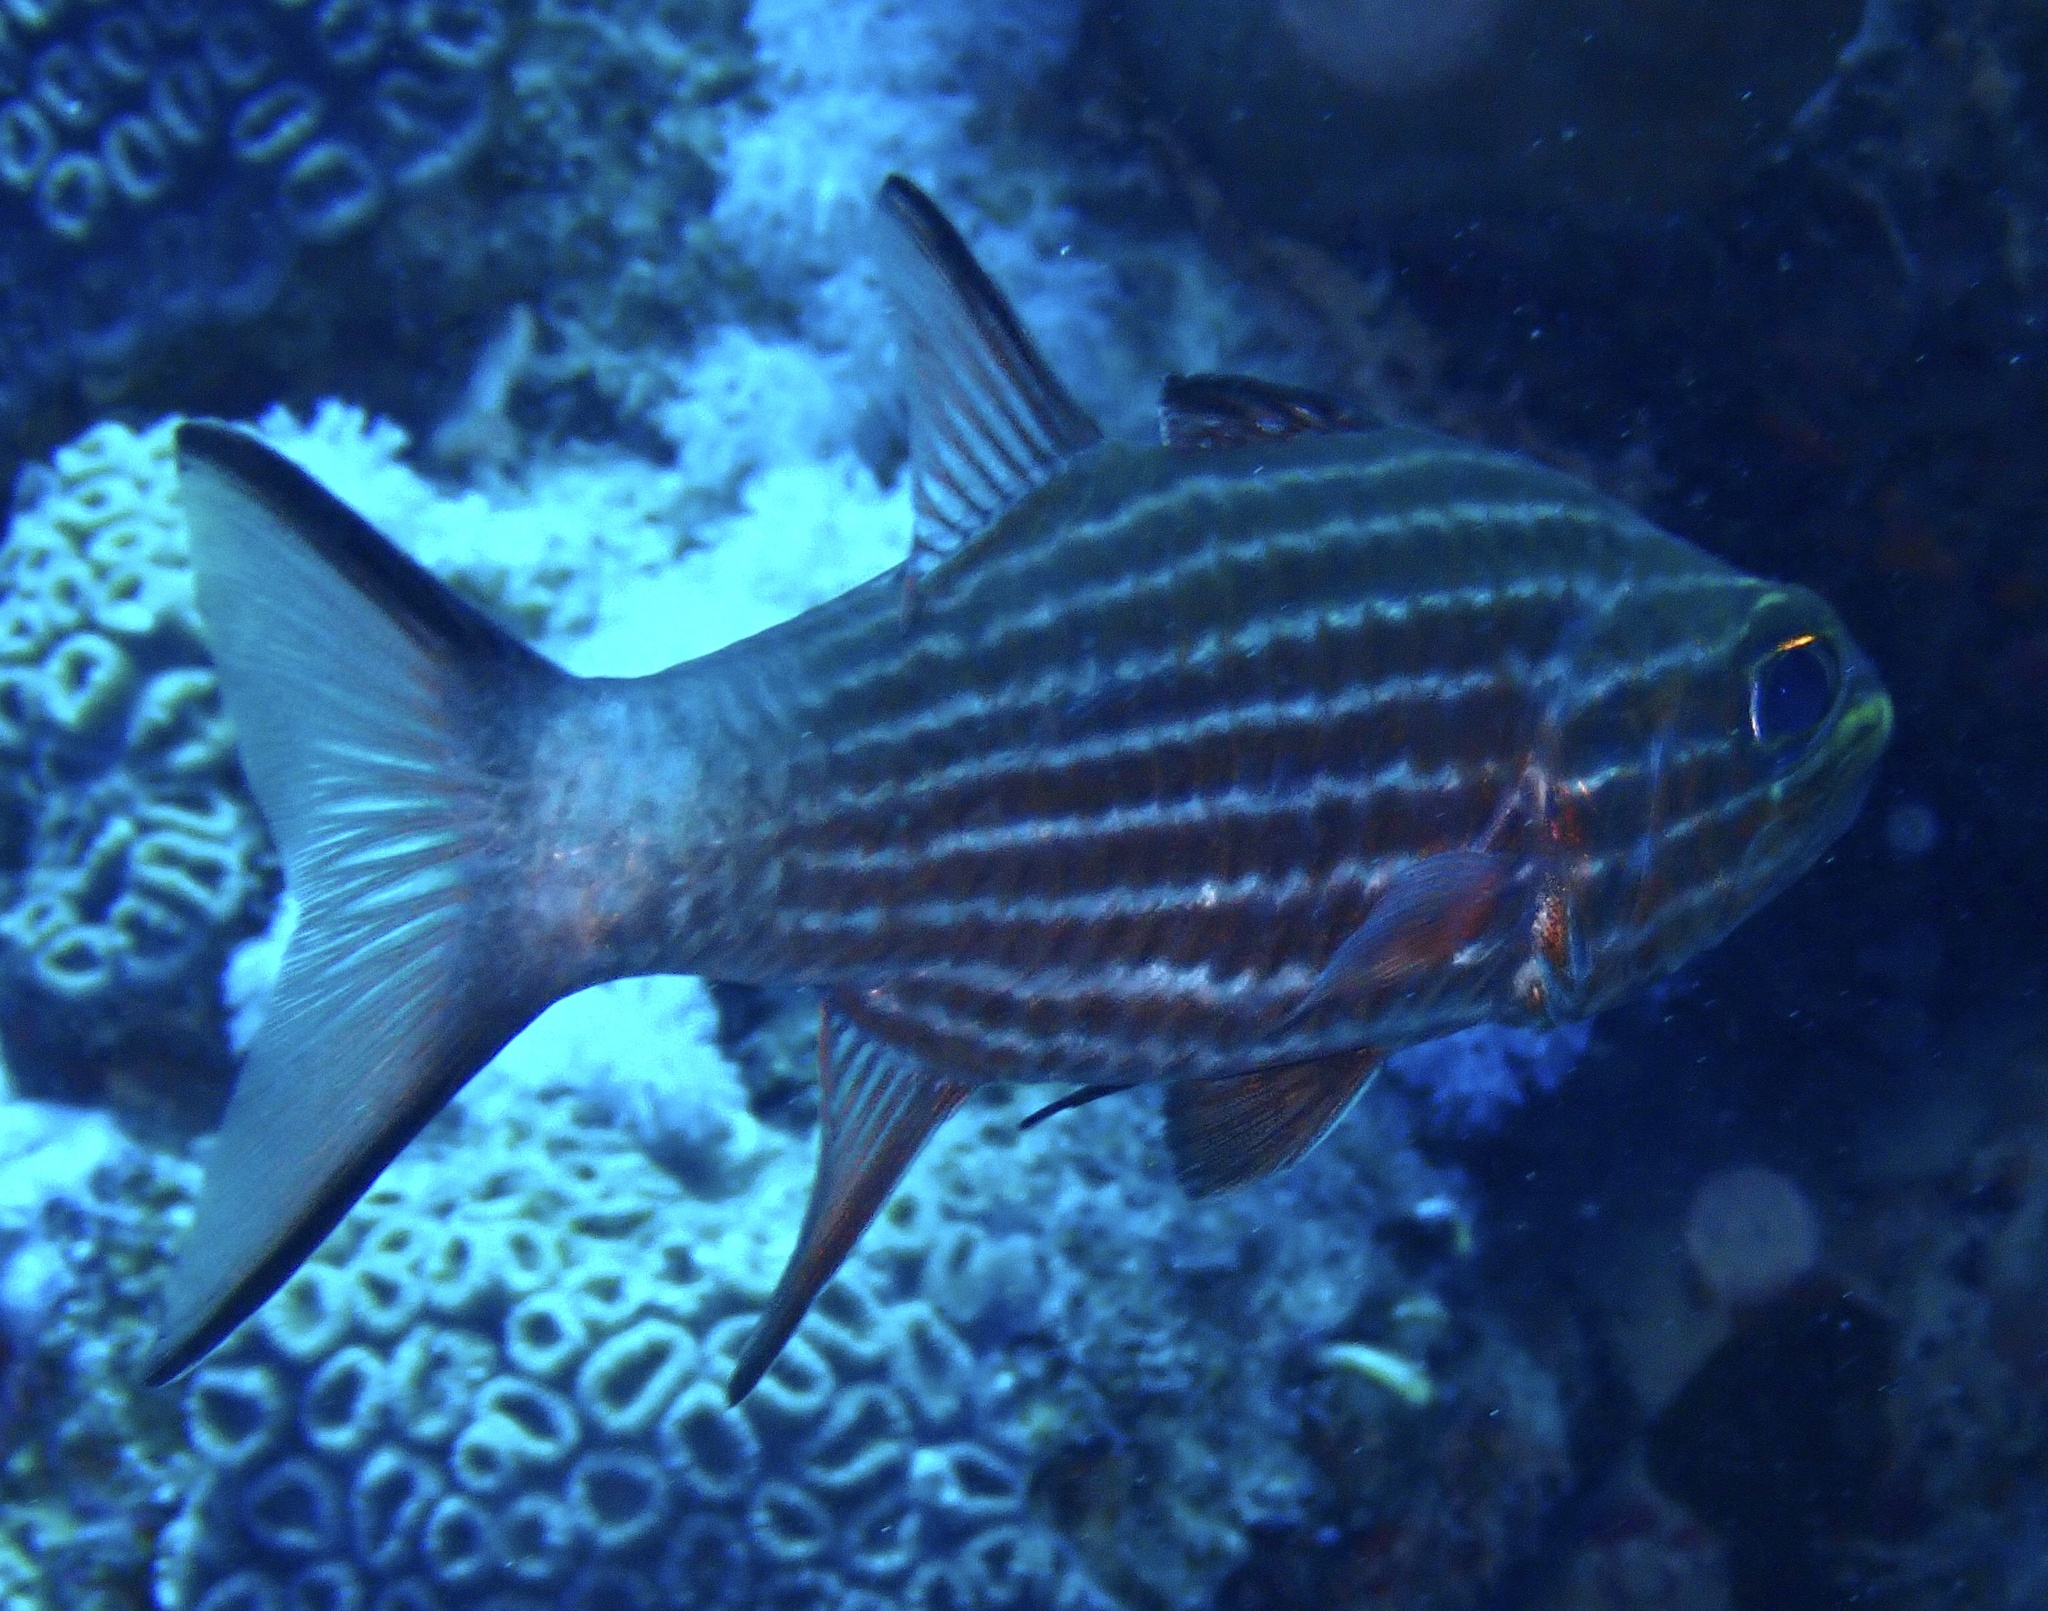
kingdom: Animalia
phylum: Chordata
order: Perciformes
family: Apogonidae
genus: Cheilodipterus
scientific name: Cheilodipterus macrodon
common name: Eight-lined cardinalfish
